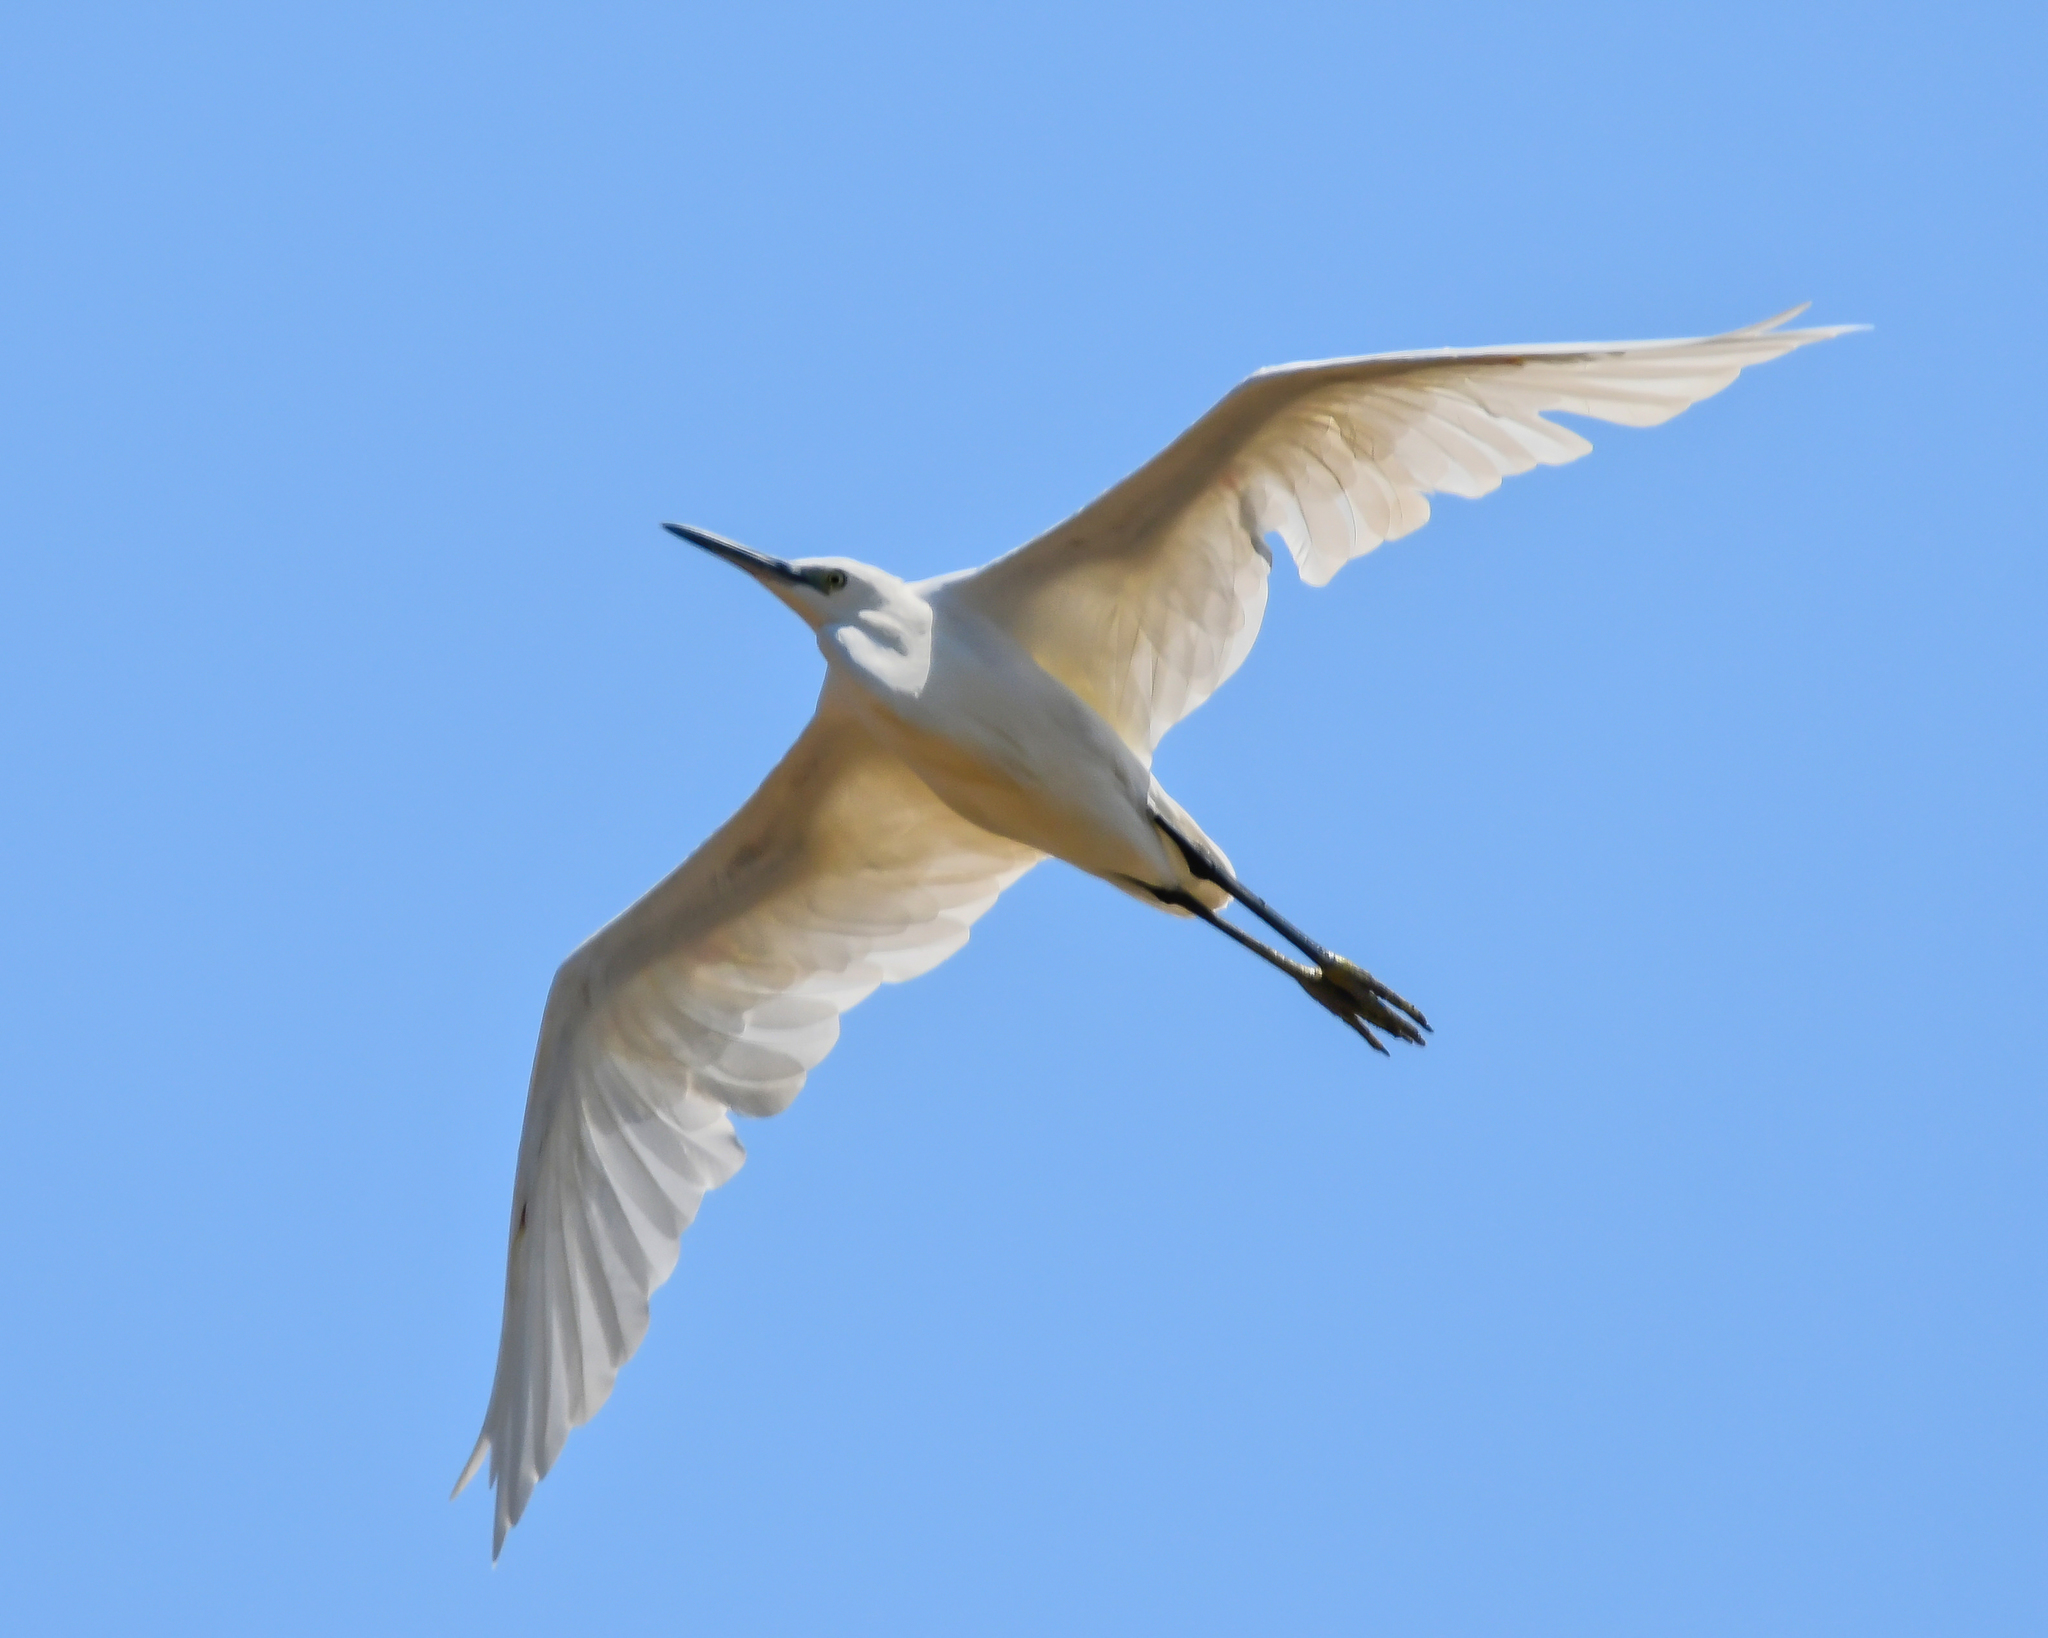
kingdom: Animalia
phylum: Chordata
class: Aves
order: Pelecaniformes
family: Ardeidae
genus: Egretta
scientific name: Egretta garzetta
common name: Little egret
